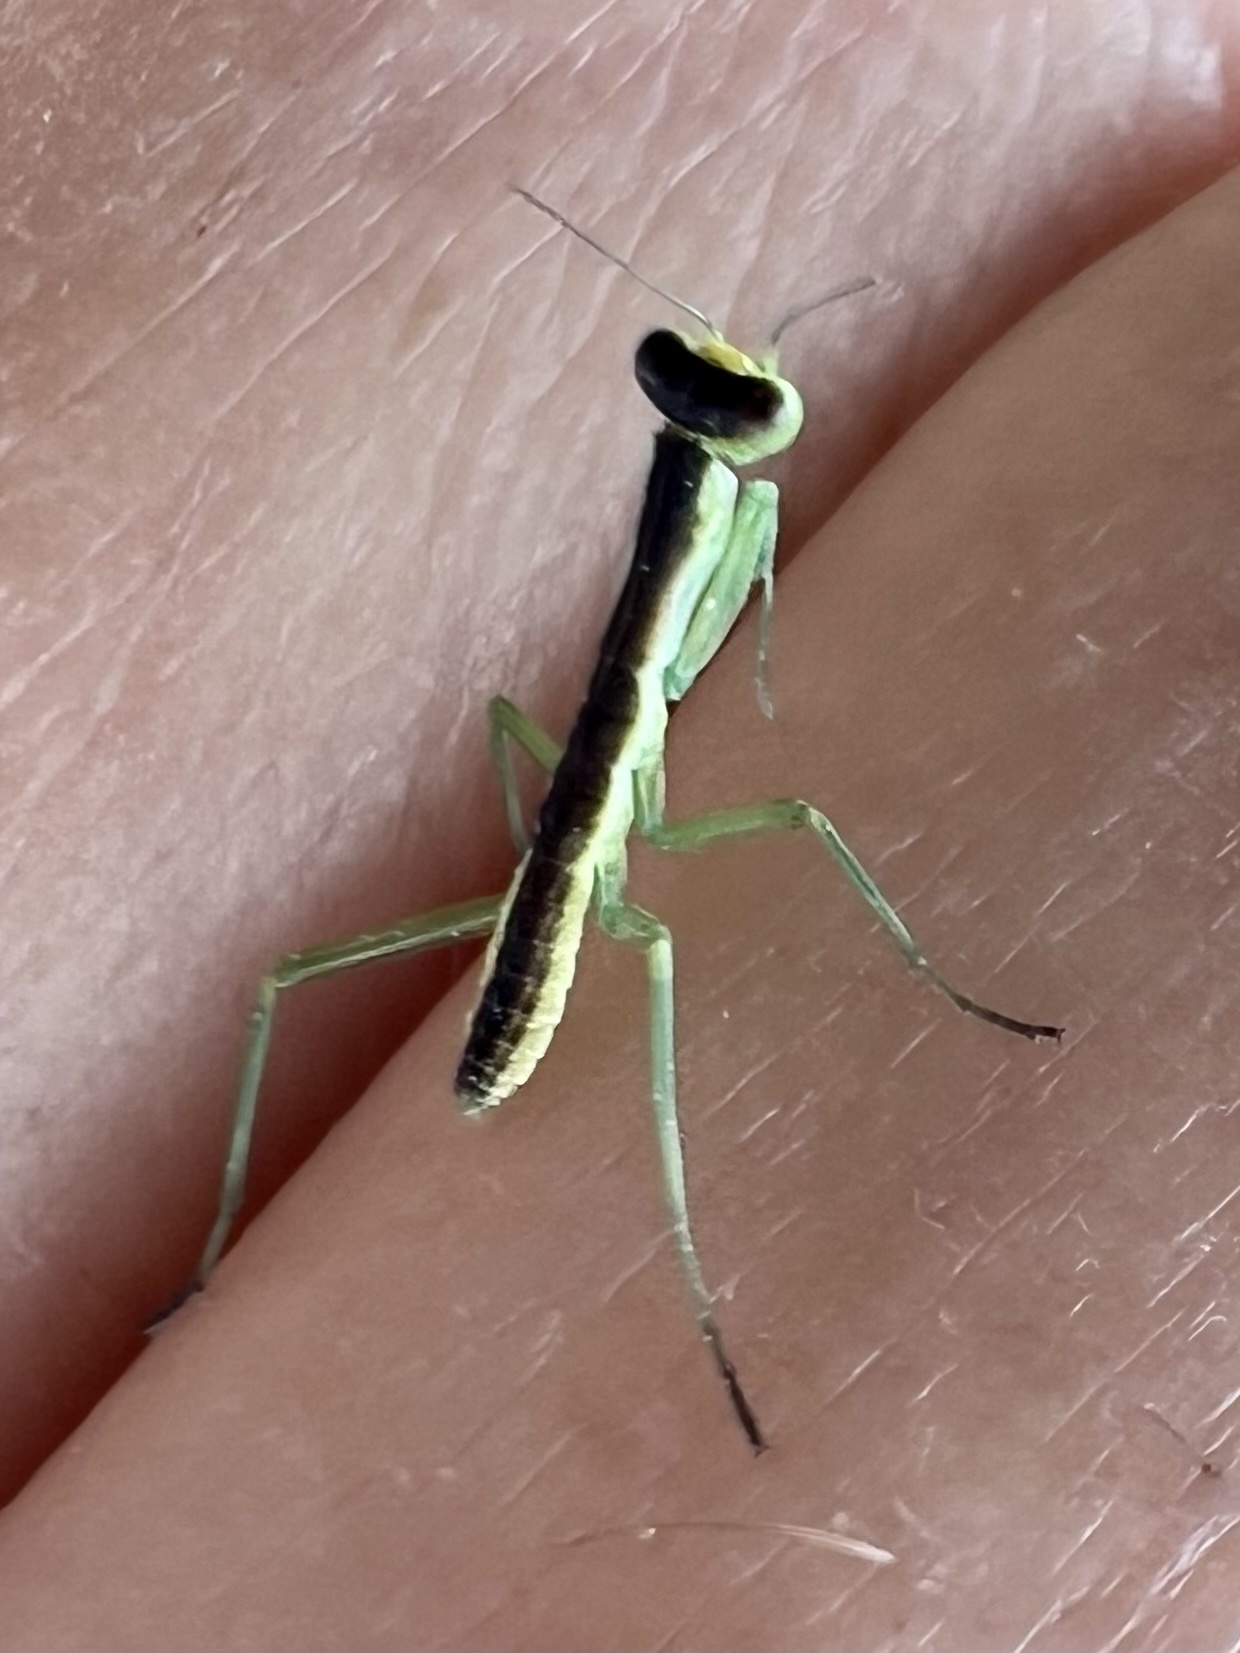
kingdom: Animalia
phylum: Arthropoda
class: Insecta
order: Mantodea
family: Mantidae
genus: Orthodera
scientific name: Orthodera novaezealandiae
